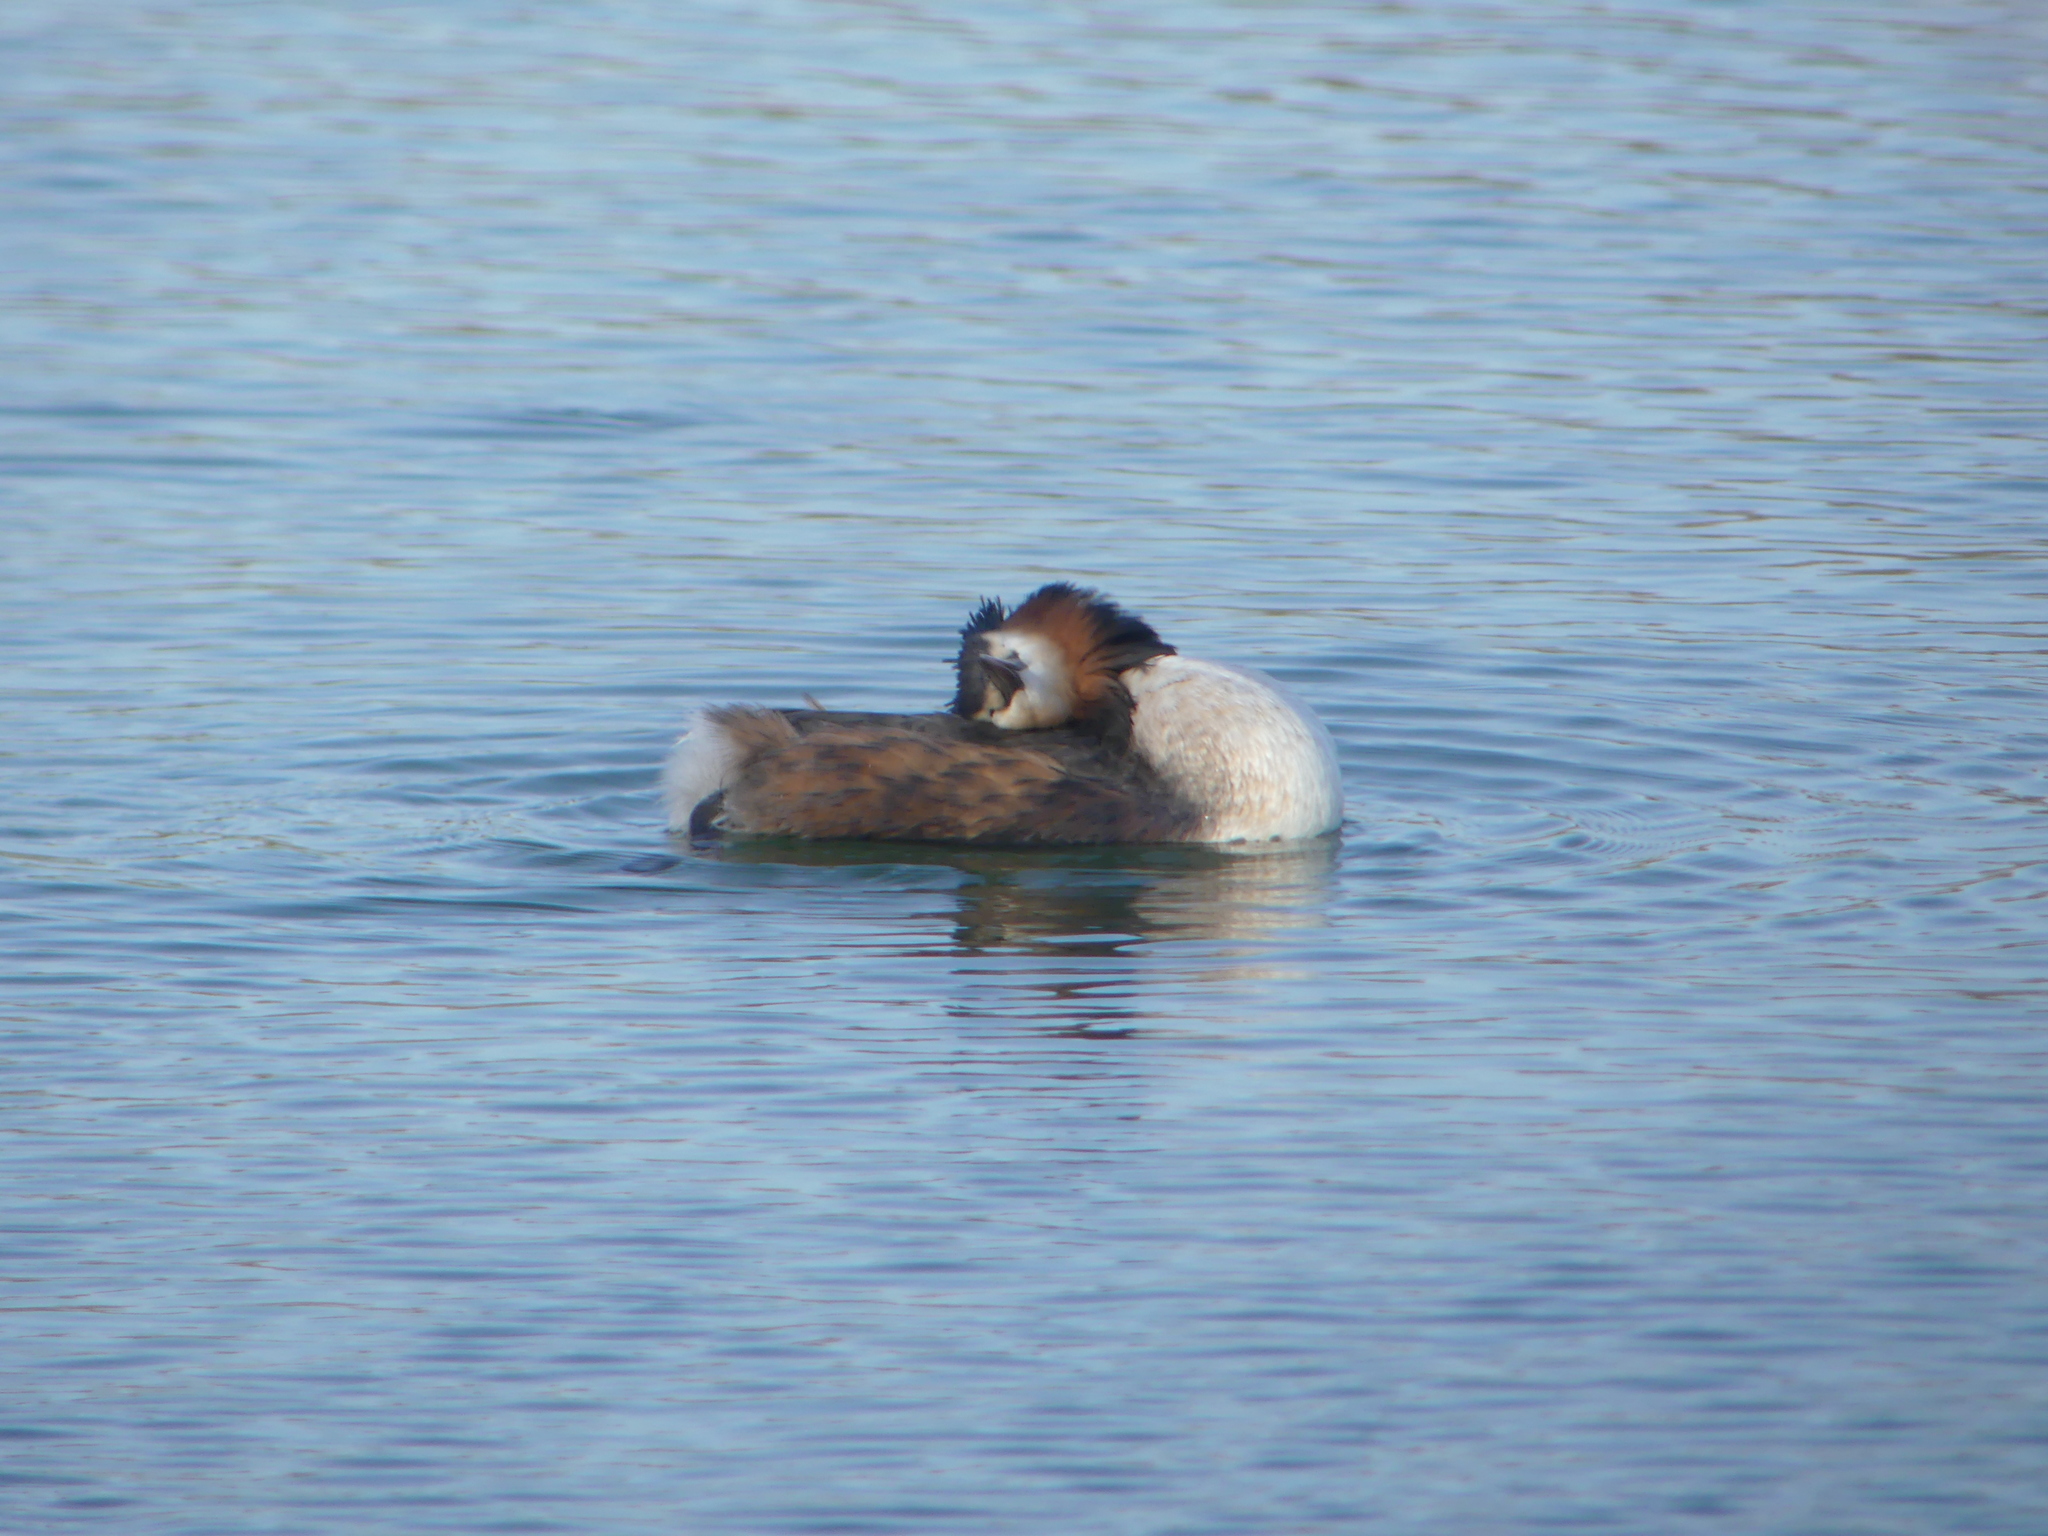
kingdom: Animalia
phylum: Chordata
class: Aves
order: Podicipediformes
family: Podicipedidae
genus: Podiceps
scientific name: Podiceps cristatus
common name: Great crested grebe
